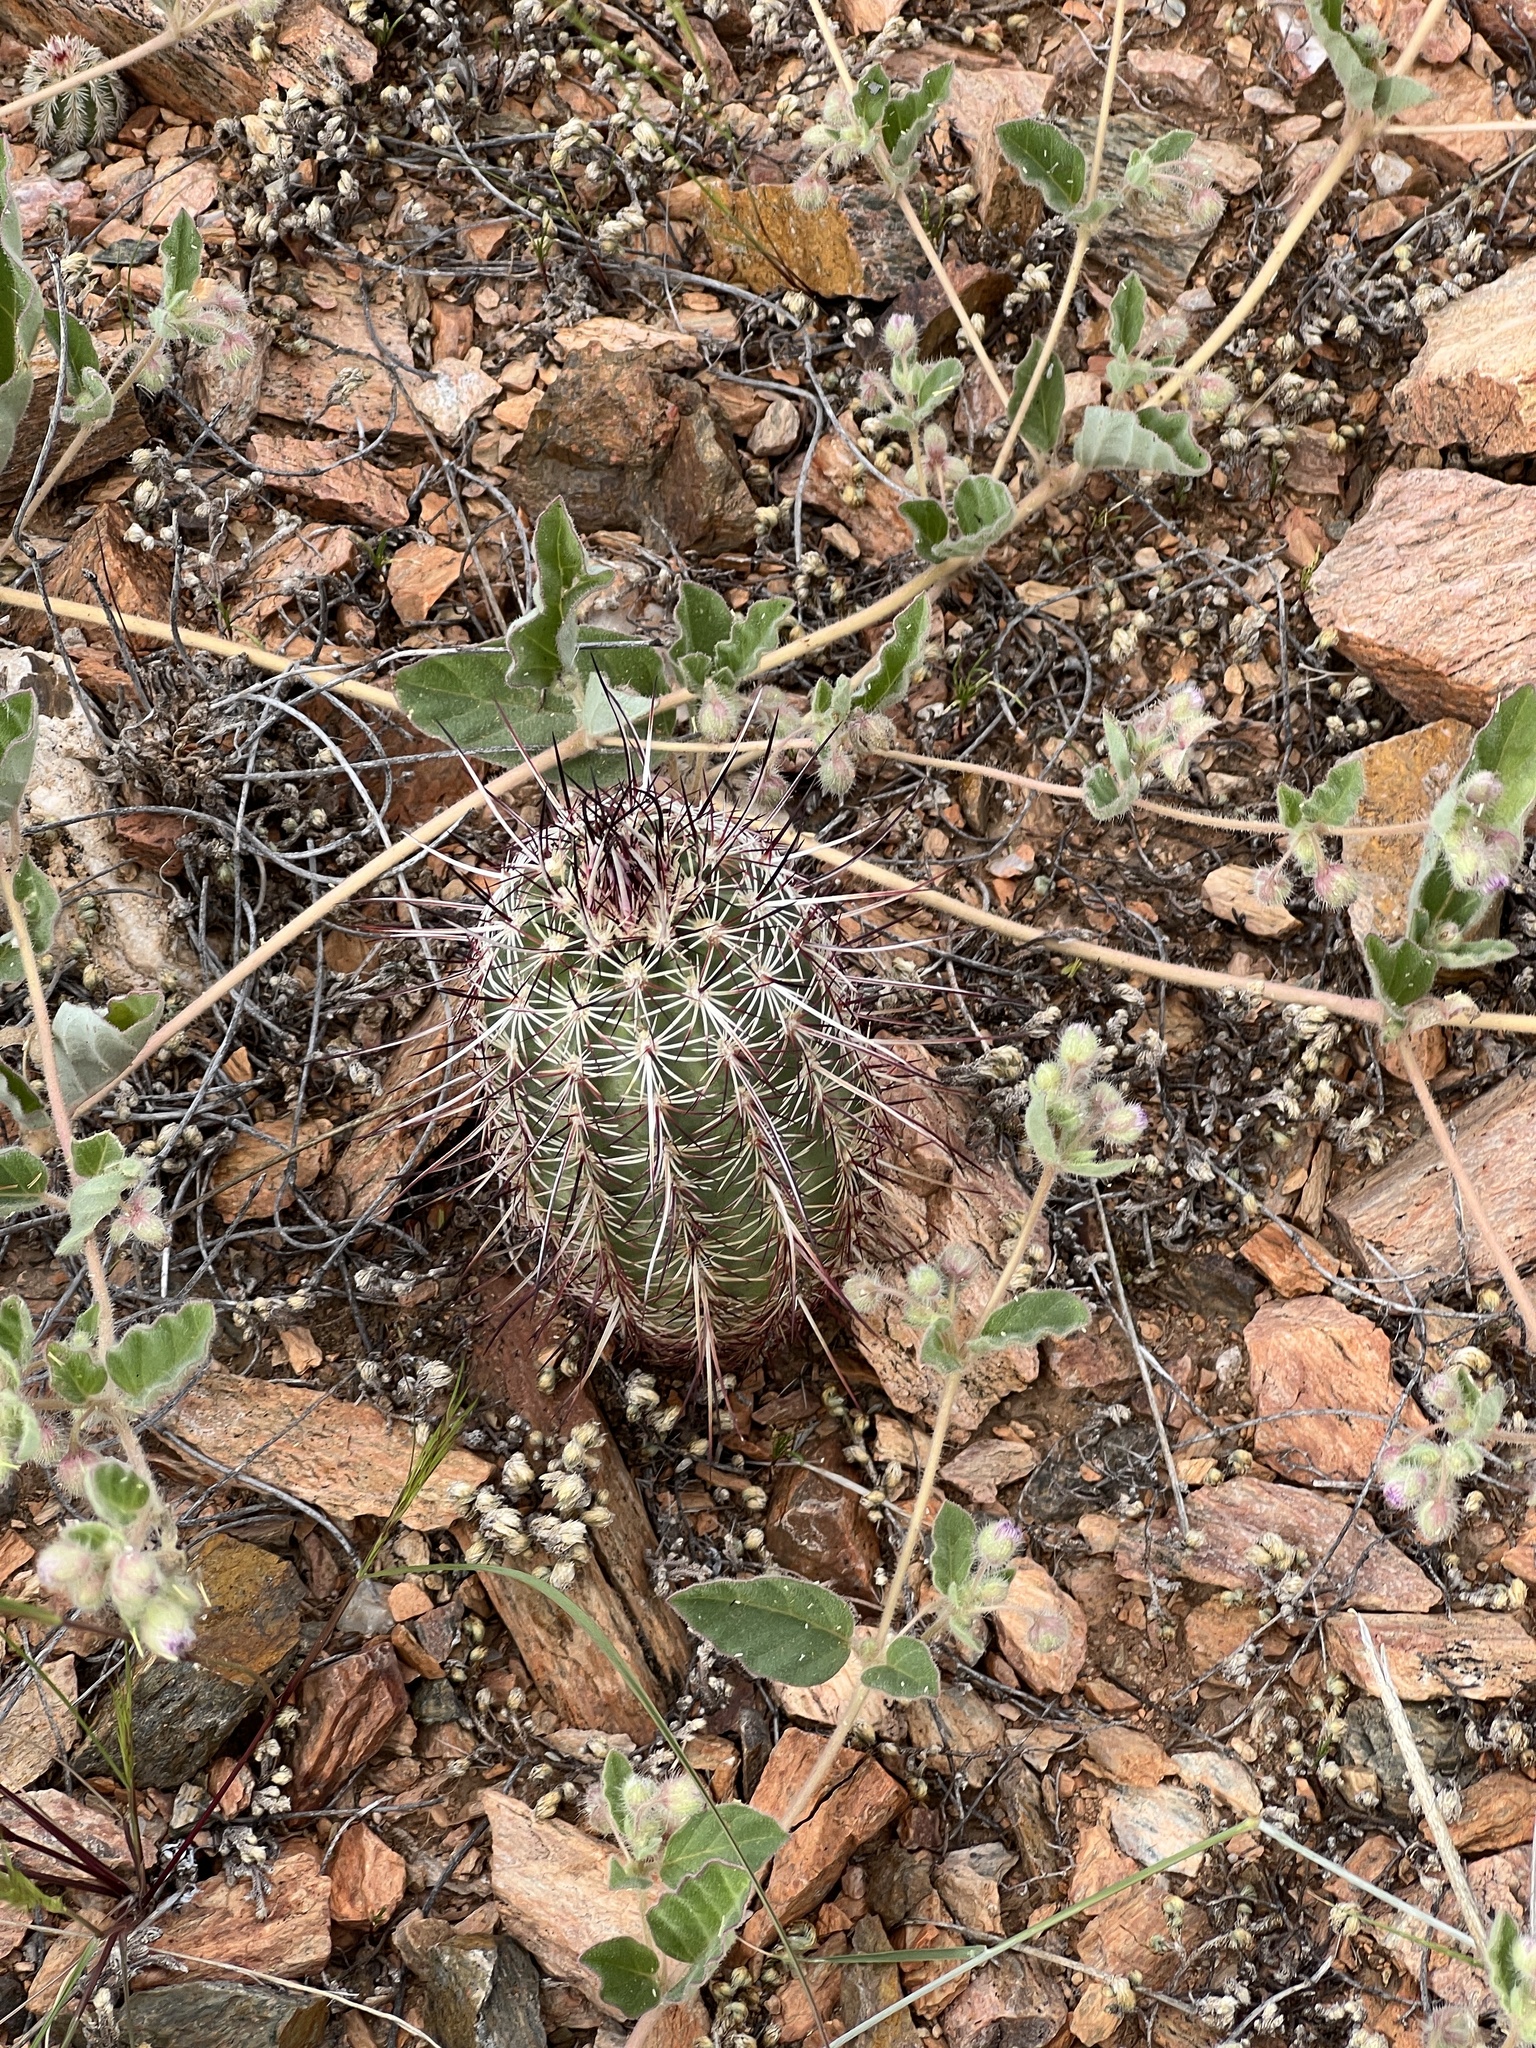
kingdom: Plantae
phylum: Tracheophyta
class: Magnoliopsida
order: Caryophyllales
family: Cactaceae
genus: Echinocereus
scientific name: Echinocereus viridiflorus
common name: Nylon hedgehog cactus
